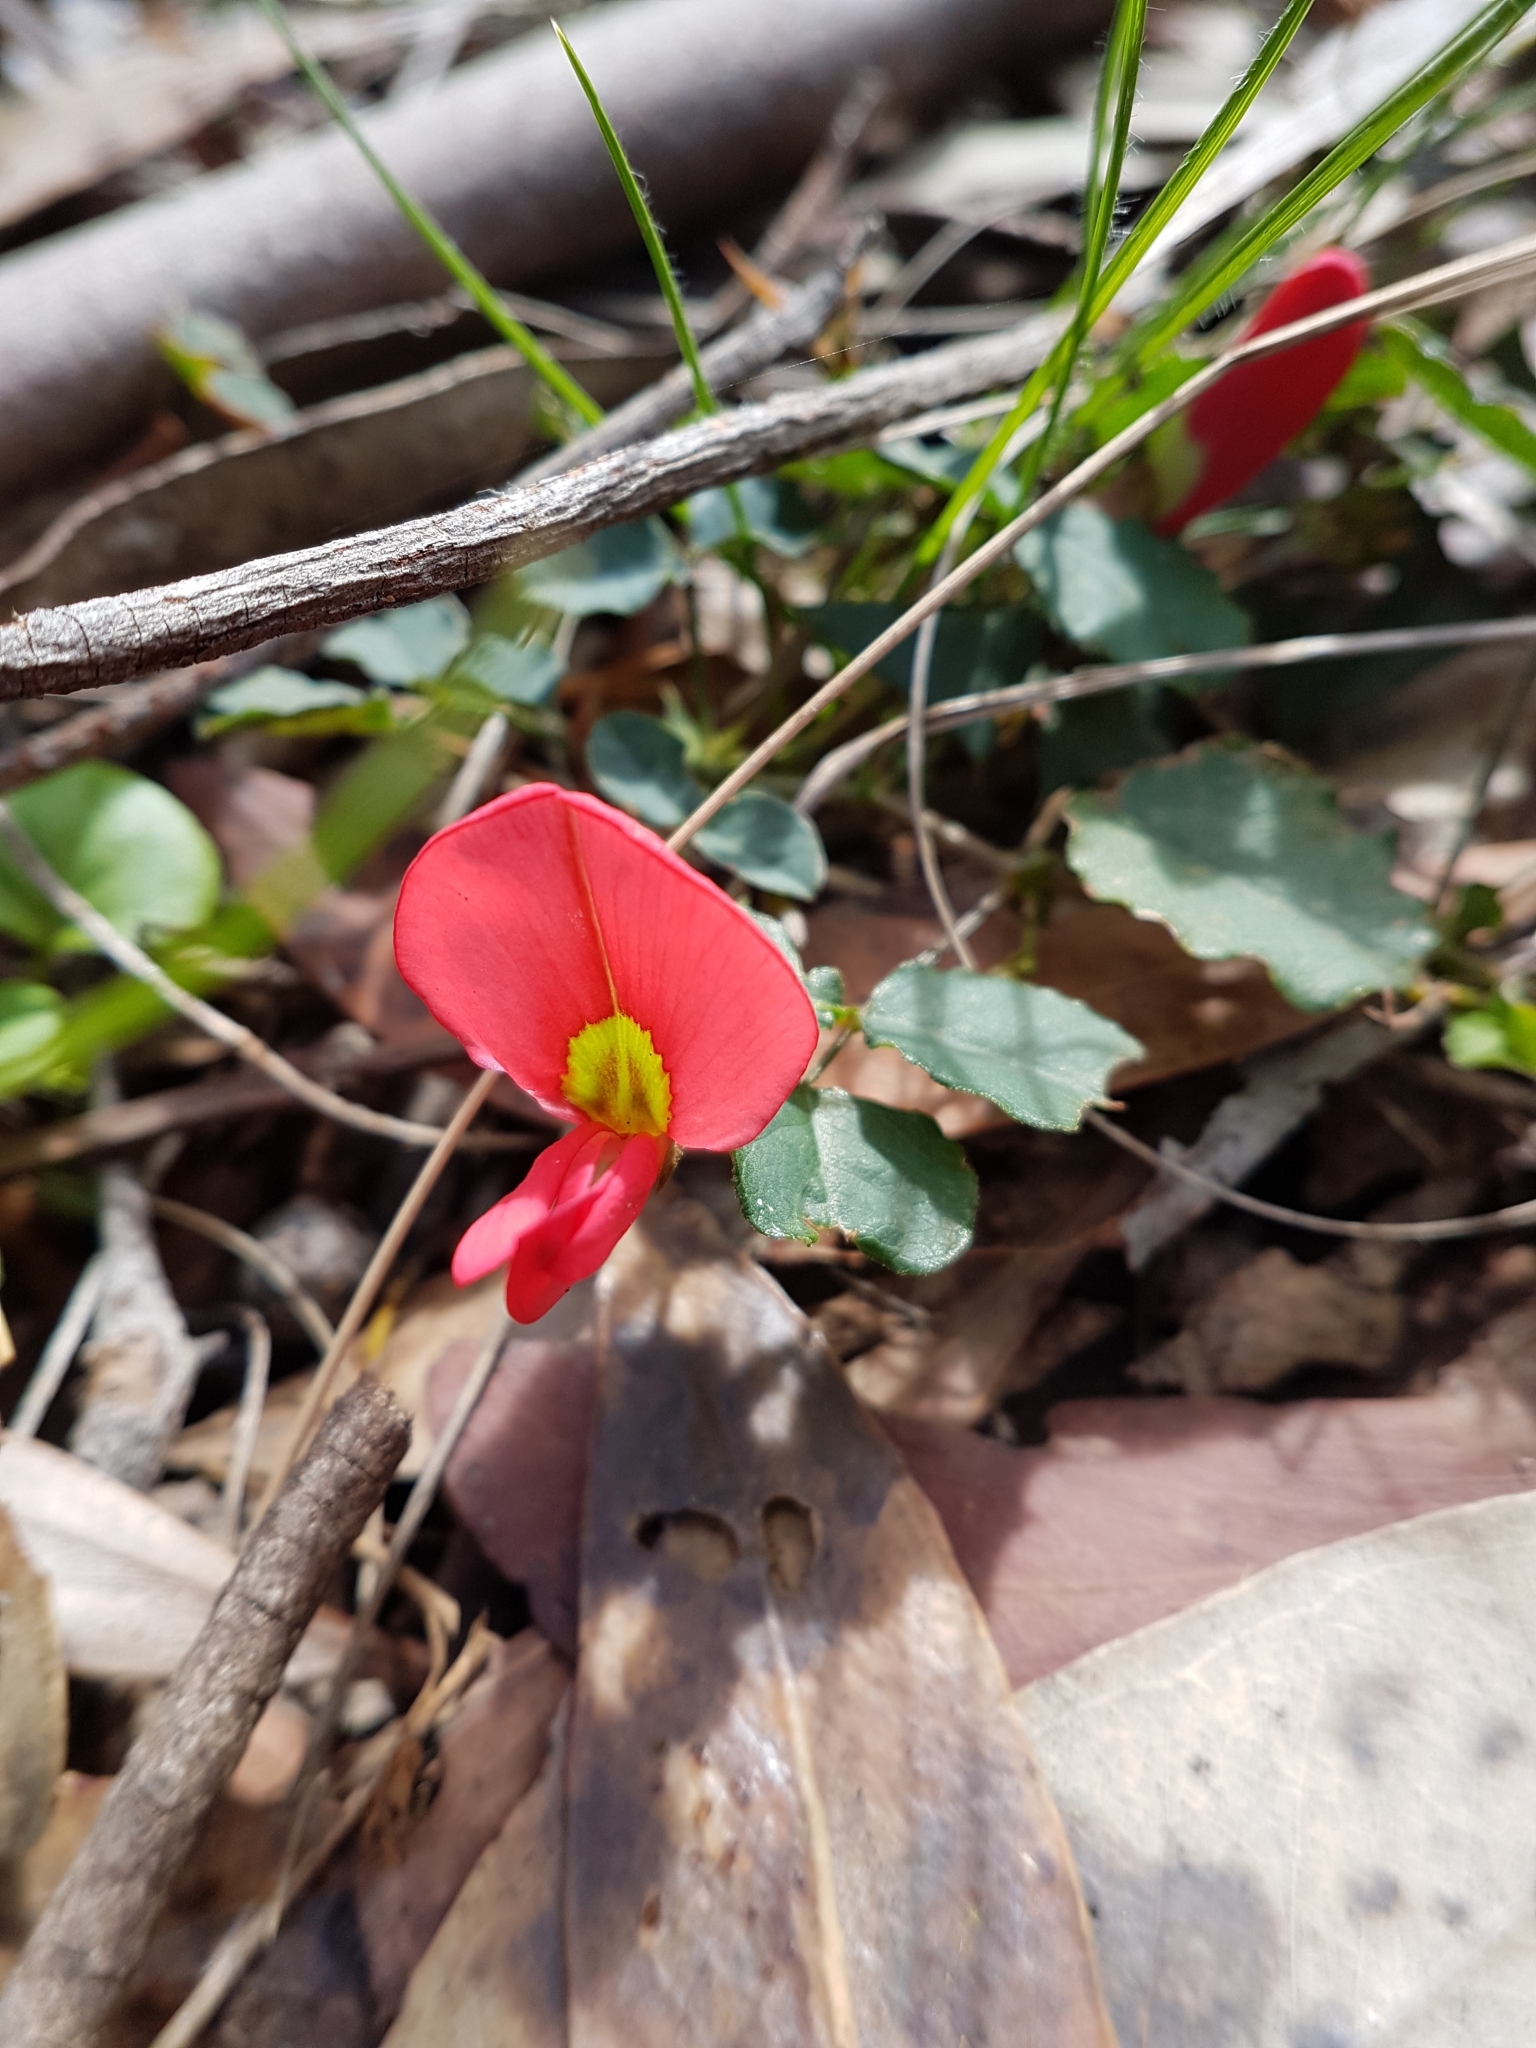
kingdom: Plantae
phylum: Tracheophyta
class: Magnoliopsida
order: Fabales
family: Fabaceae
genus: Kennedia
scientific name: Kennedia prostrata
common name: Running-postman
